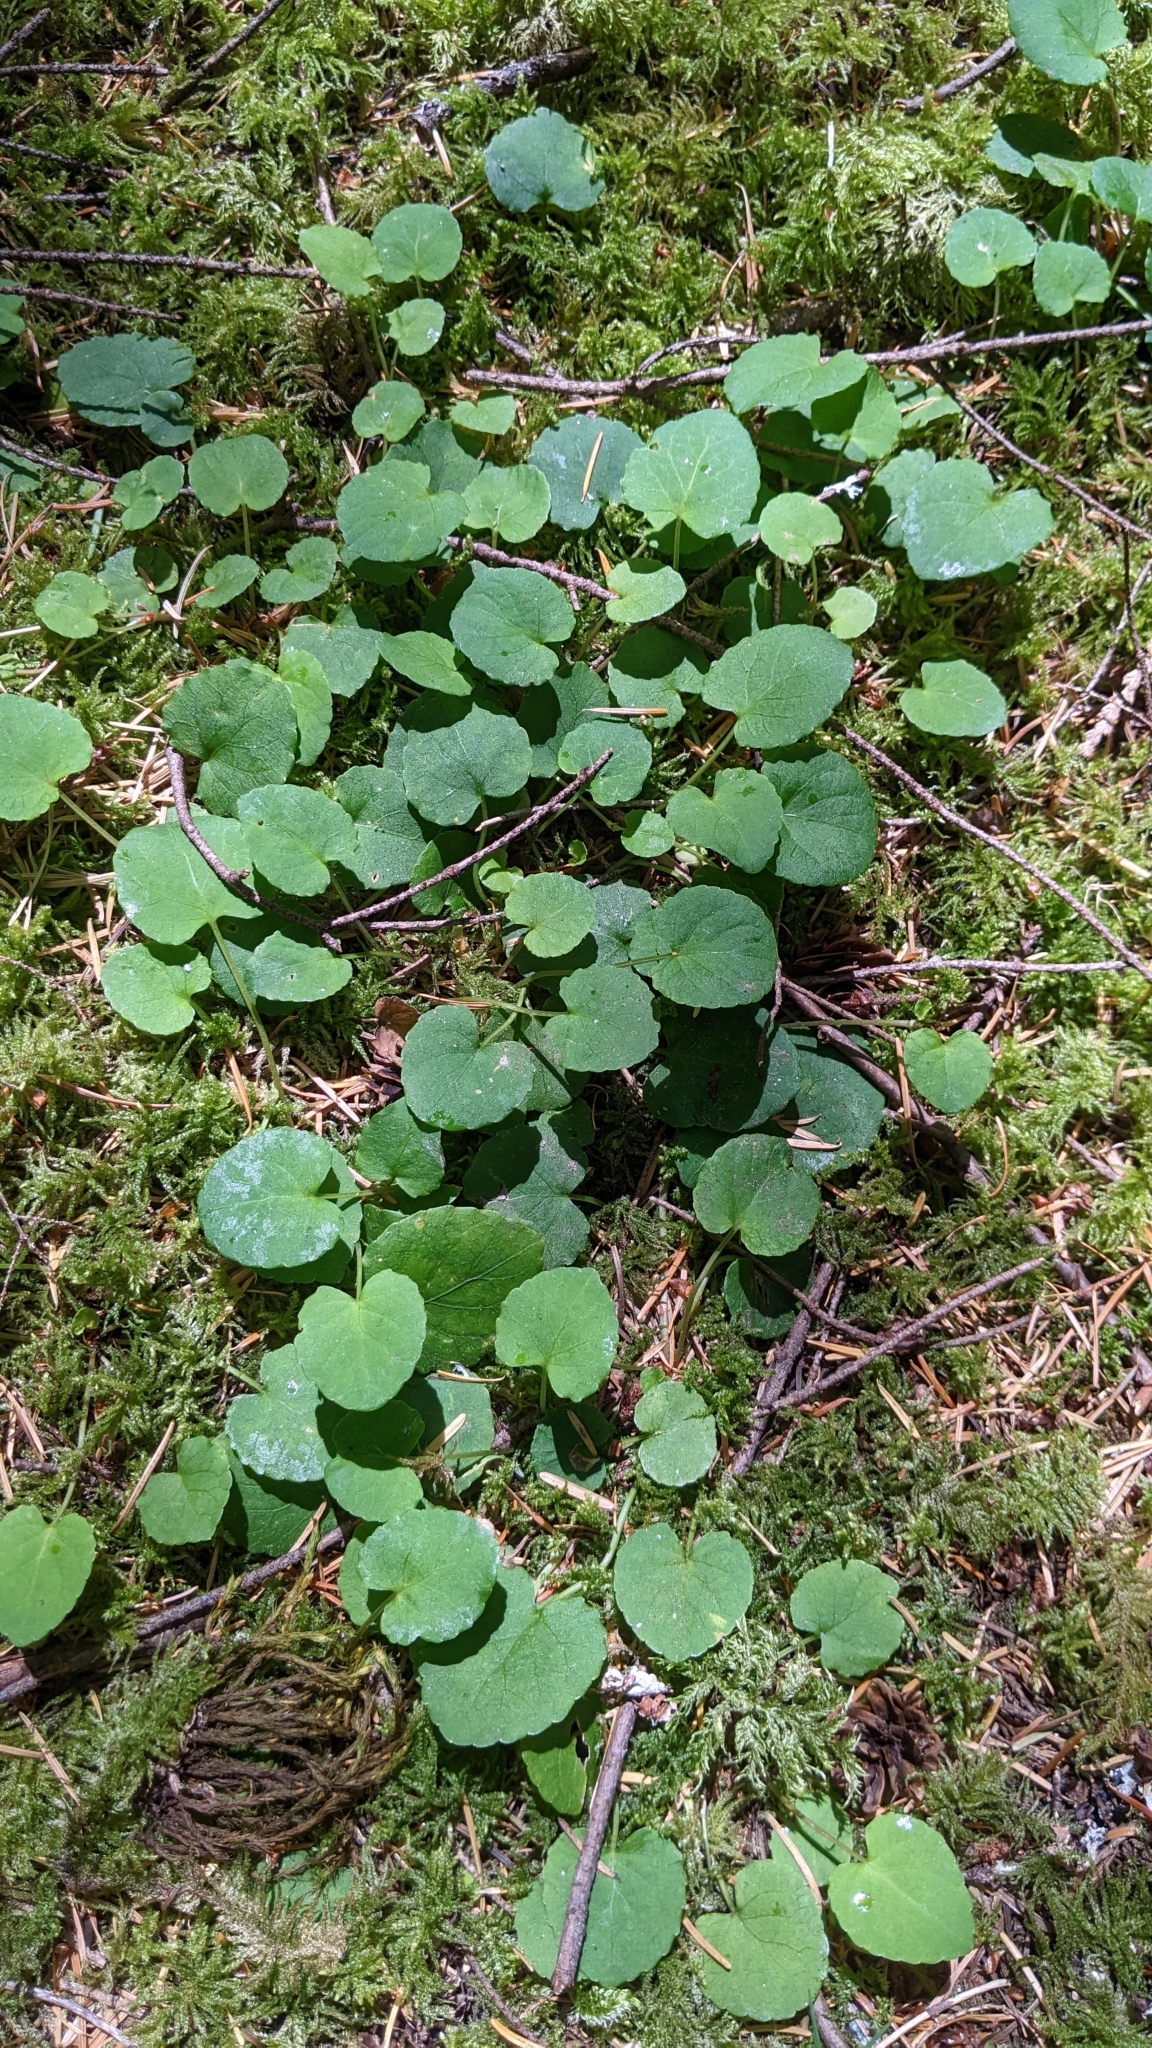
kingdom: Plantae
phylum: Tracheophyta
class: Magnoliopsida
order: Malpighiales
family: Violaceae
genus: Viola
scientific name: Viola sempervirens
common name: Evergreen violet
